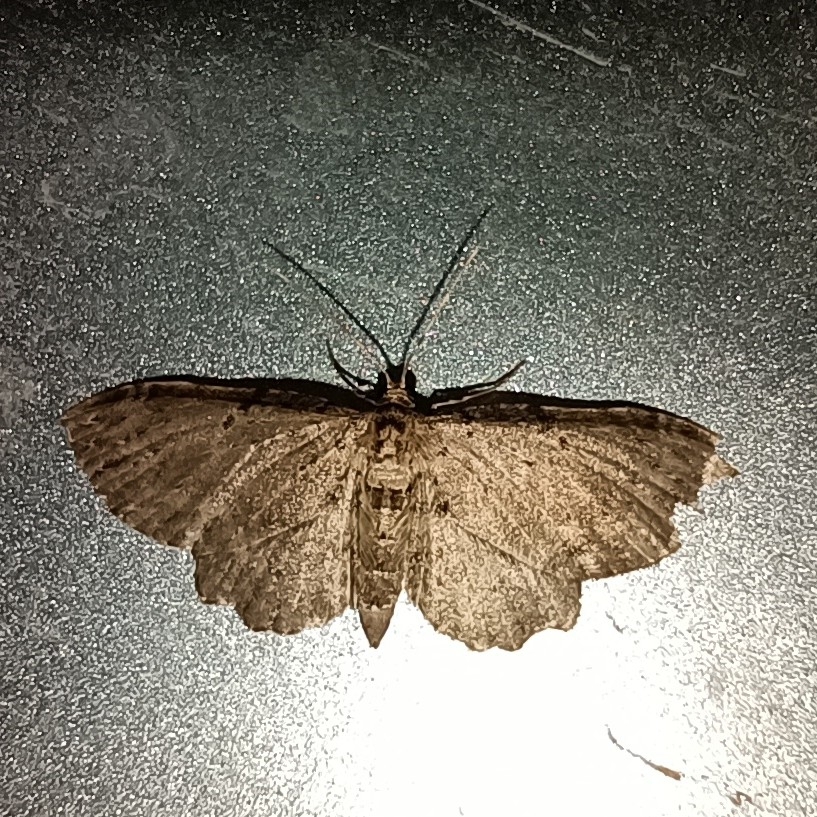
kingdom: Animalia
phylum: Arthropoda
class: Insecta
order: Lepidoptera
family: Geometridae
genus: Anticollix
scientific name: Anticollix sparsata
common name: Dentated pug
